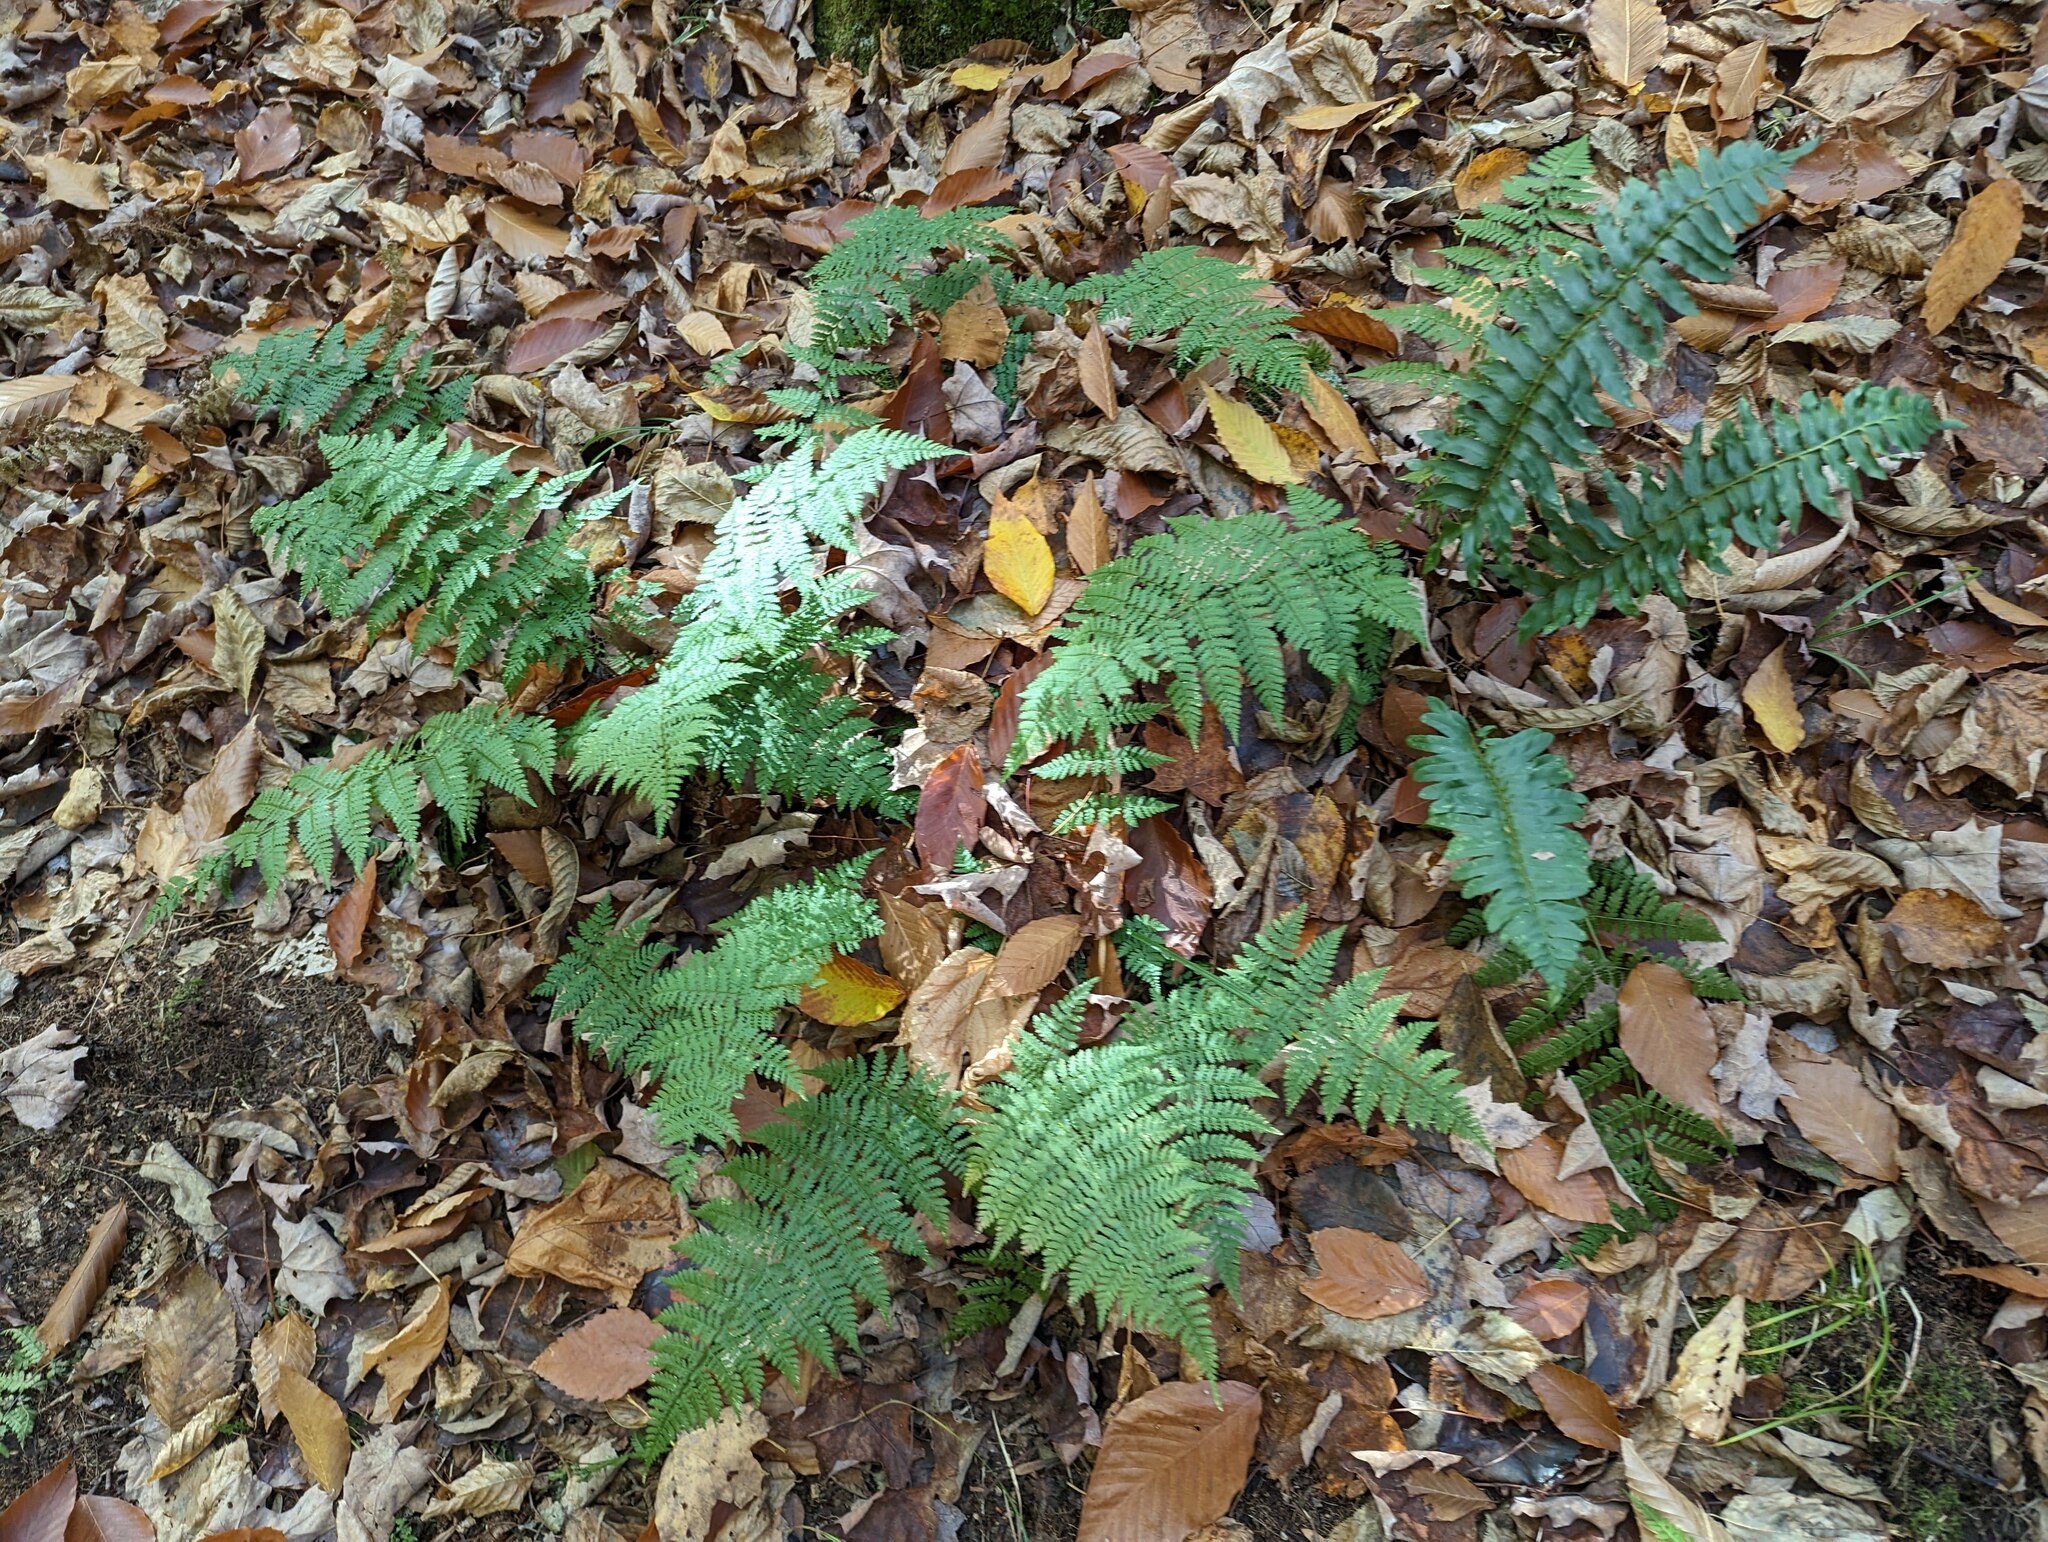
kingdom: Plantae
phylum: Tracheophyta
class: Polypodiopsida
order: Polypodiales
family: Dryopteridaceae
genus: Dryopteris
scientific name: Dryopteris intermedia
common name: Evergreen wood fern
